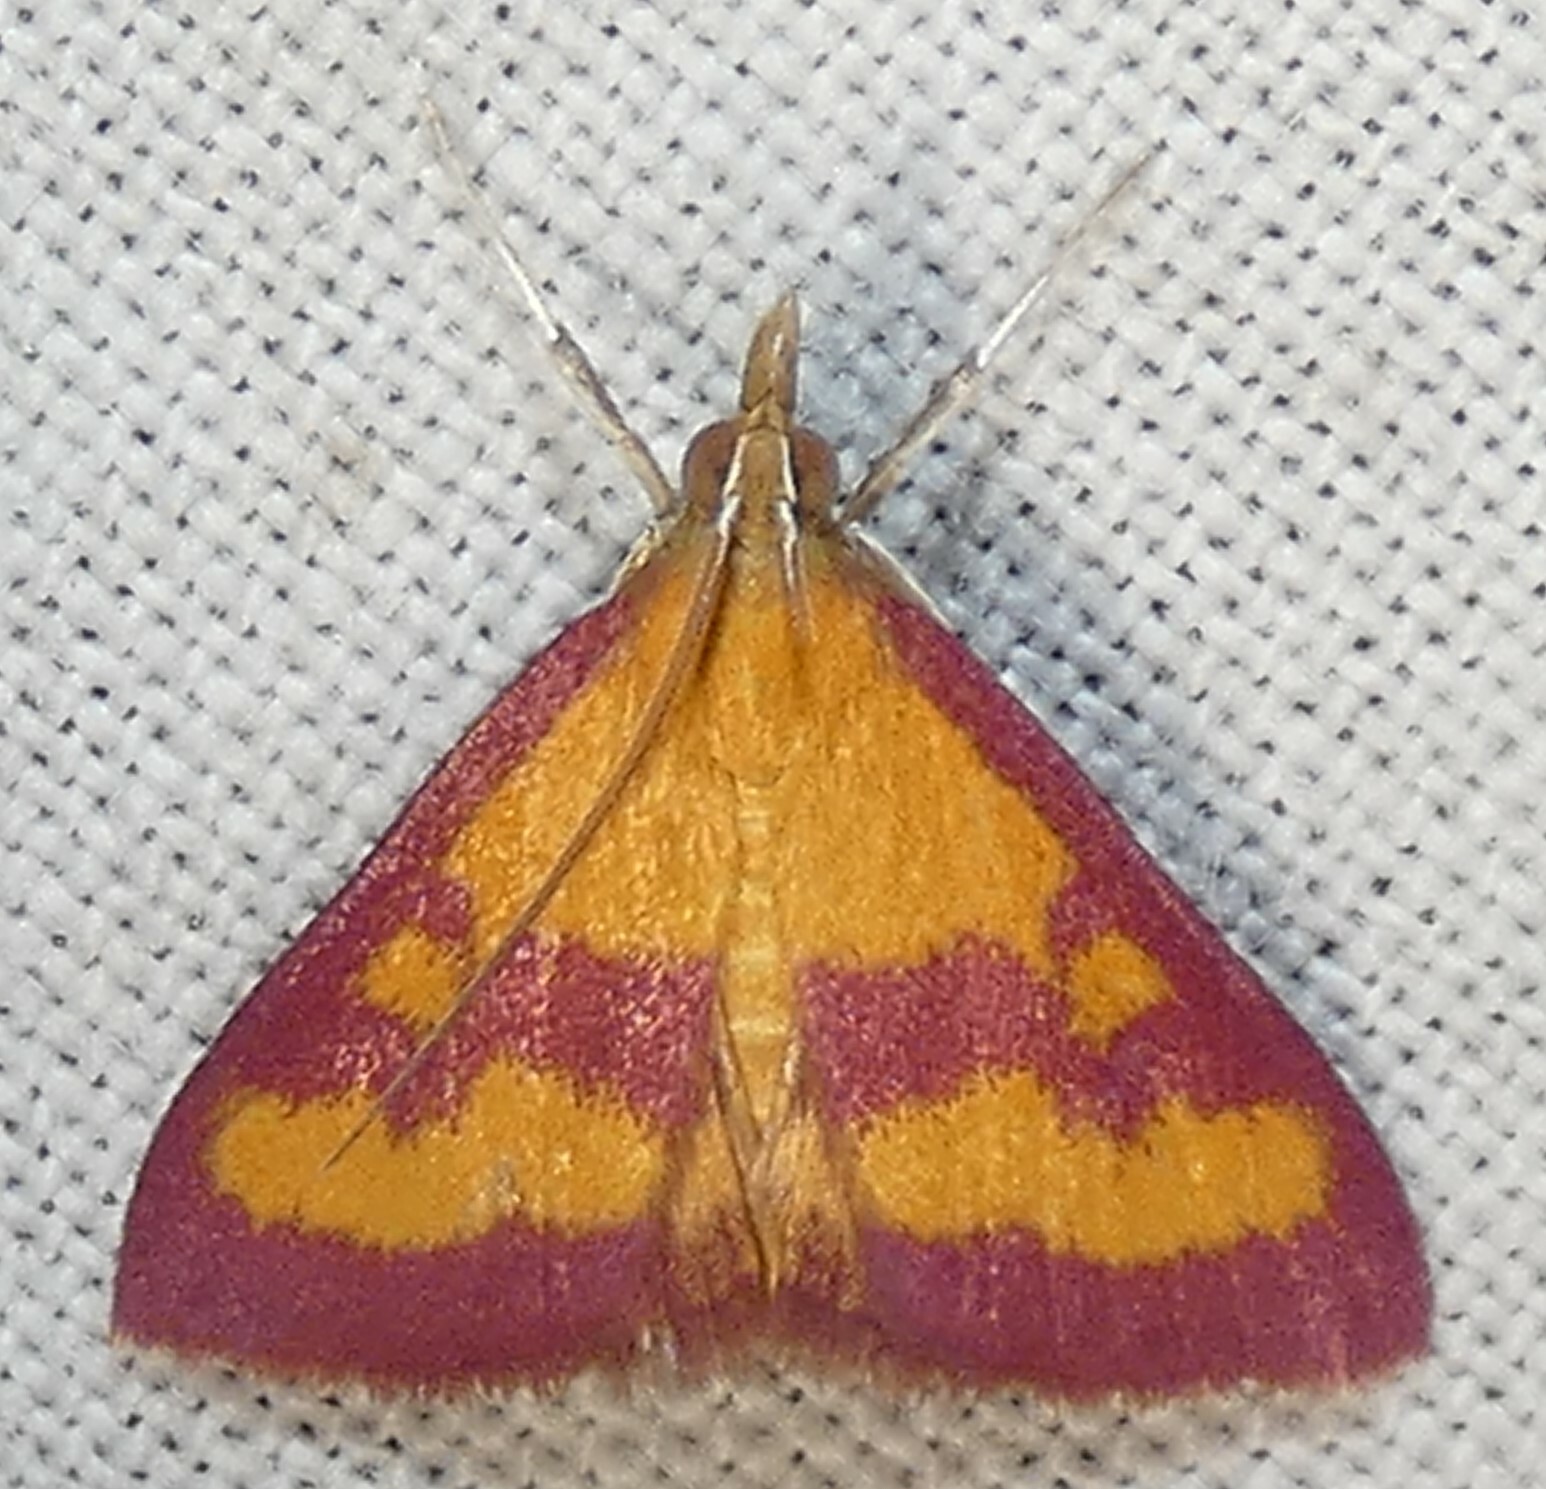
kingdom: Animalia
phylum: Arthropoda
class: Insecta
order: Lepidoptera
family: Crambidae
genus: Pyrausta
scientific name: Pyrausta laticlavia
